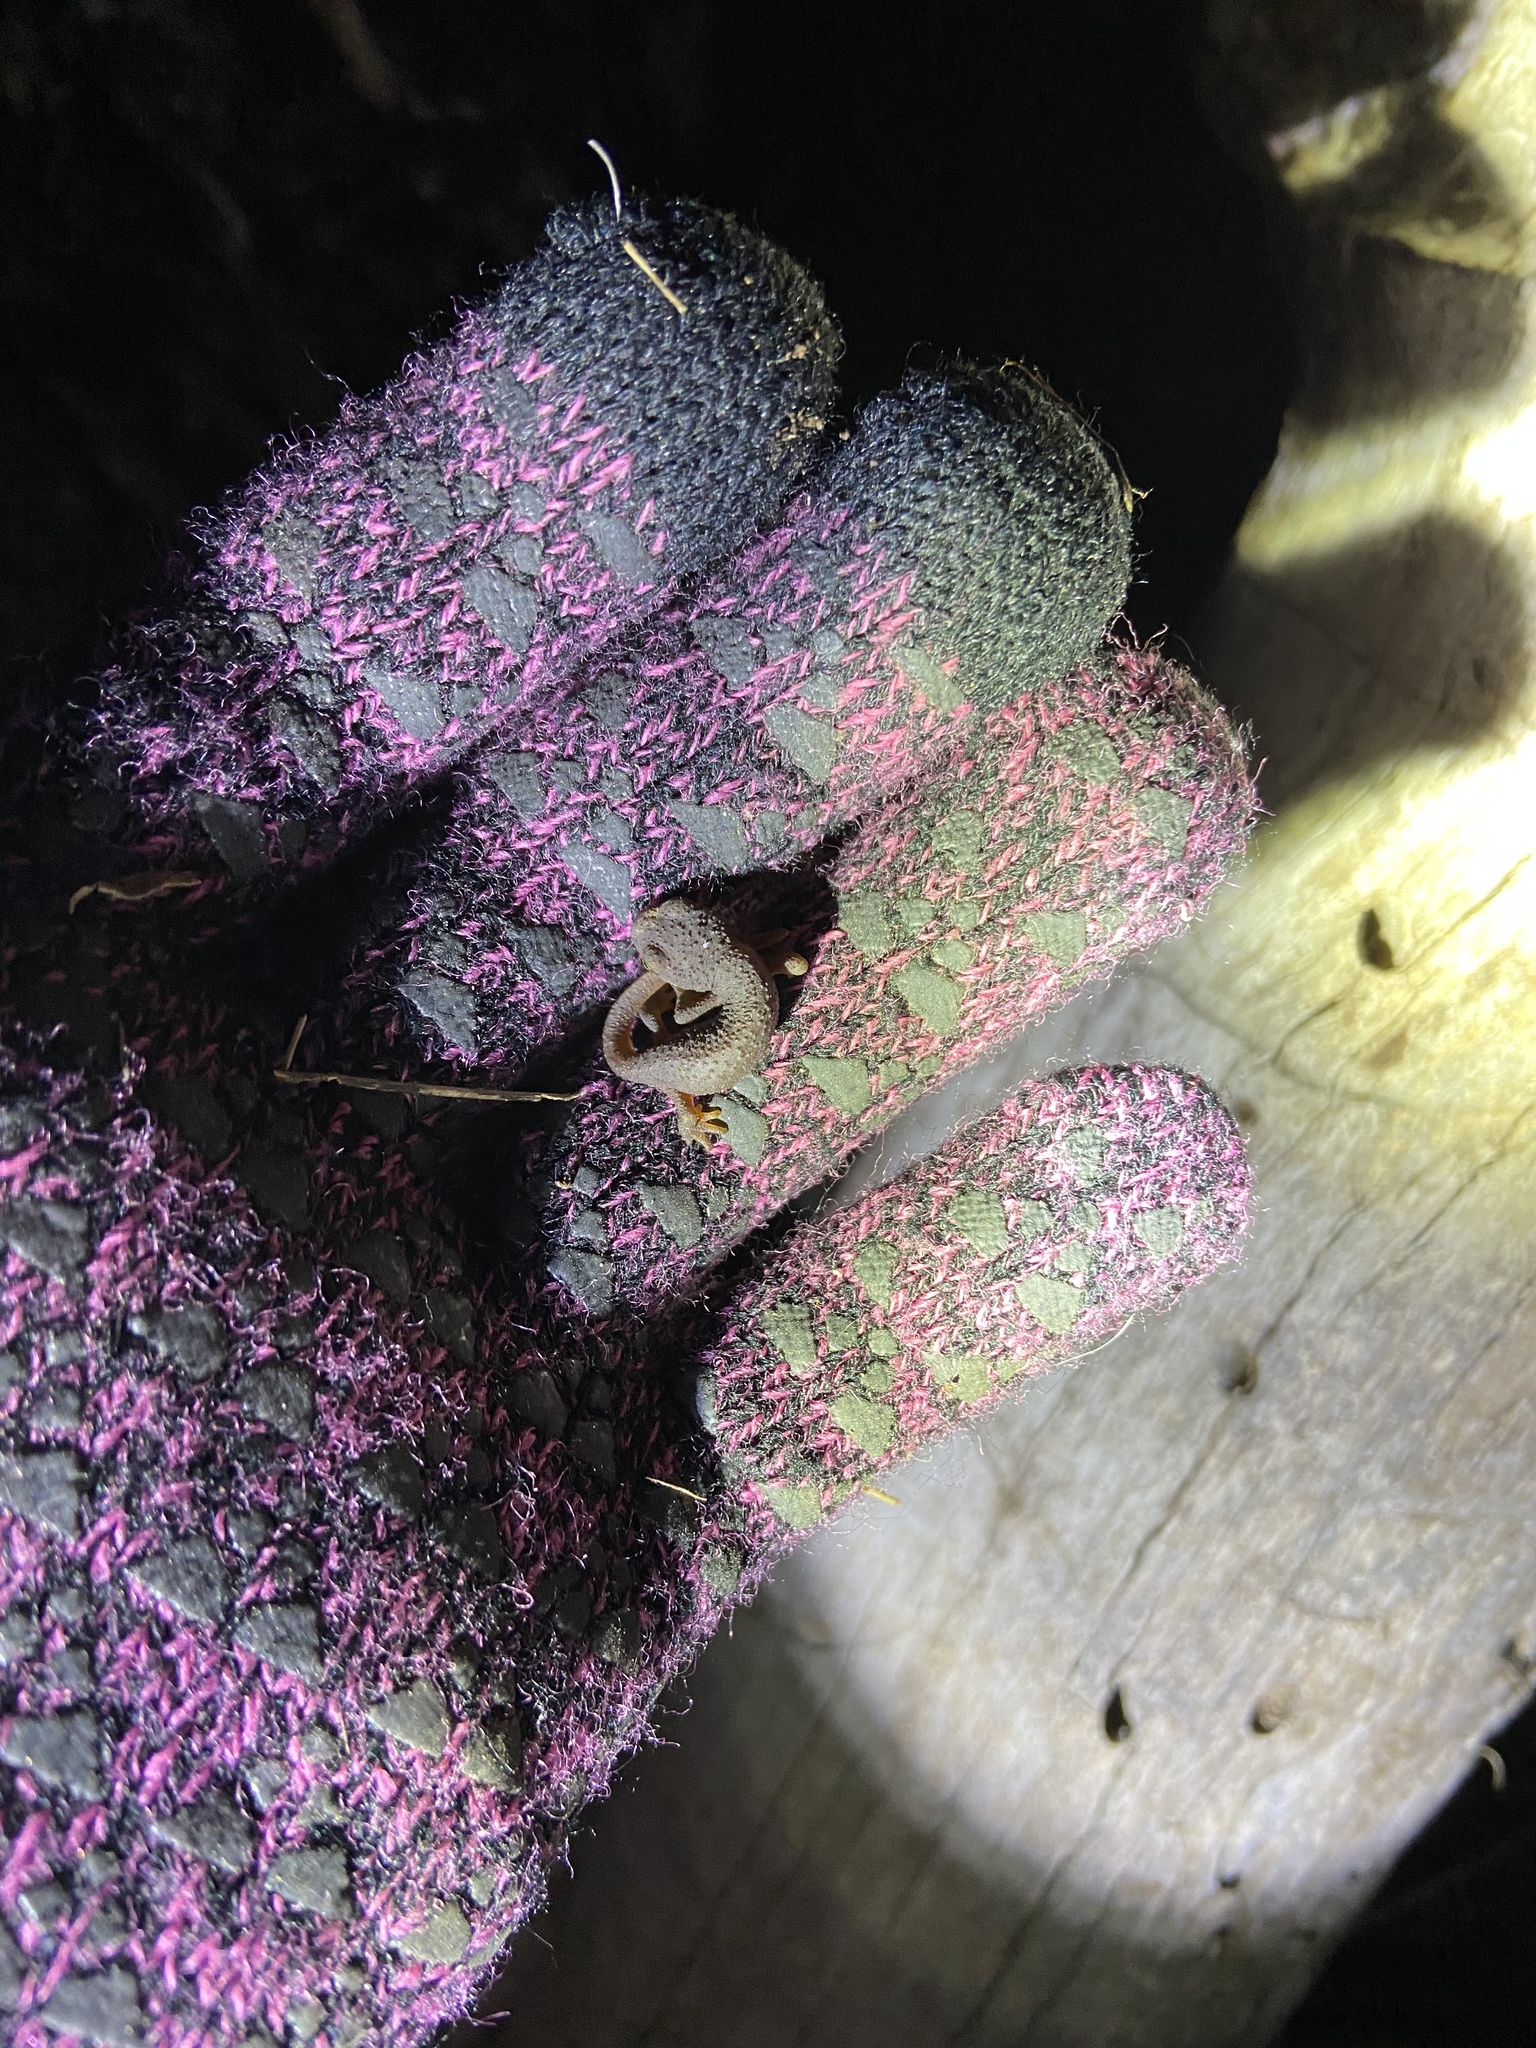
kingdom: Animalia
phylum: Chordata
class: Amphibia
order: Caudata
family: Salamandridae
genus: Taricha
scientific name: Taricha torosa
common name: California newt
